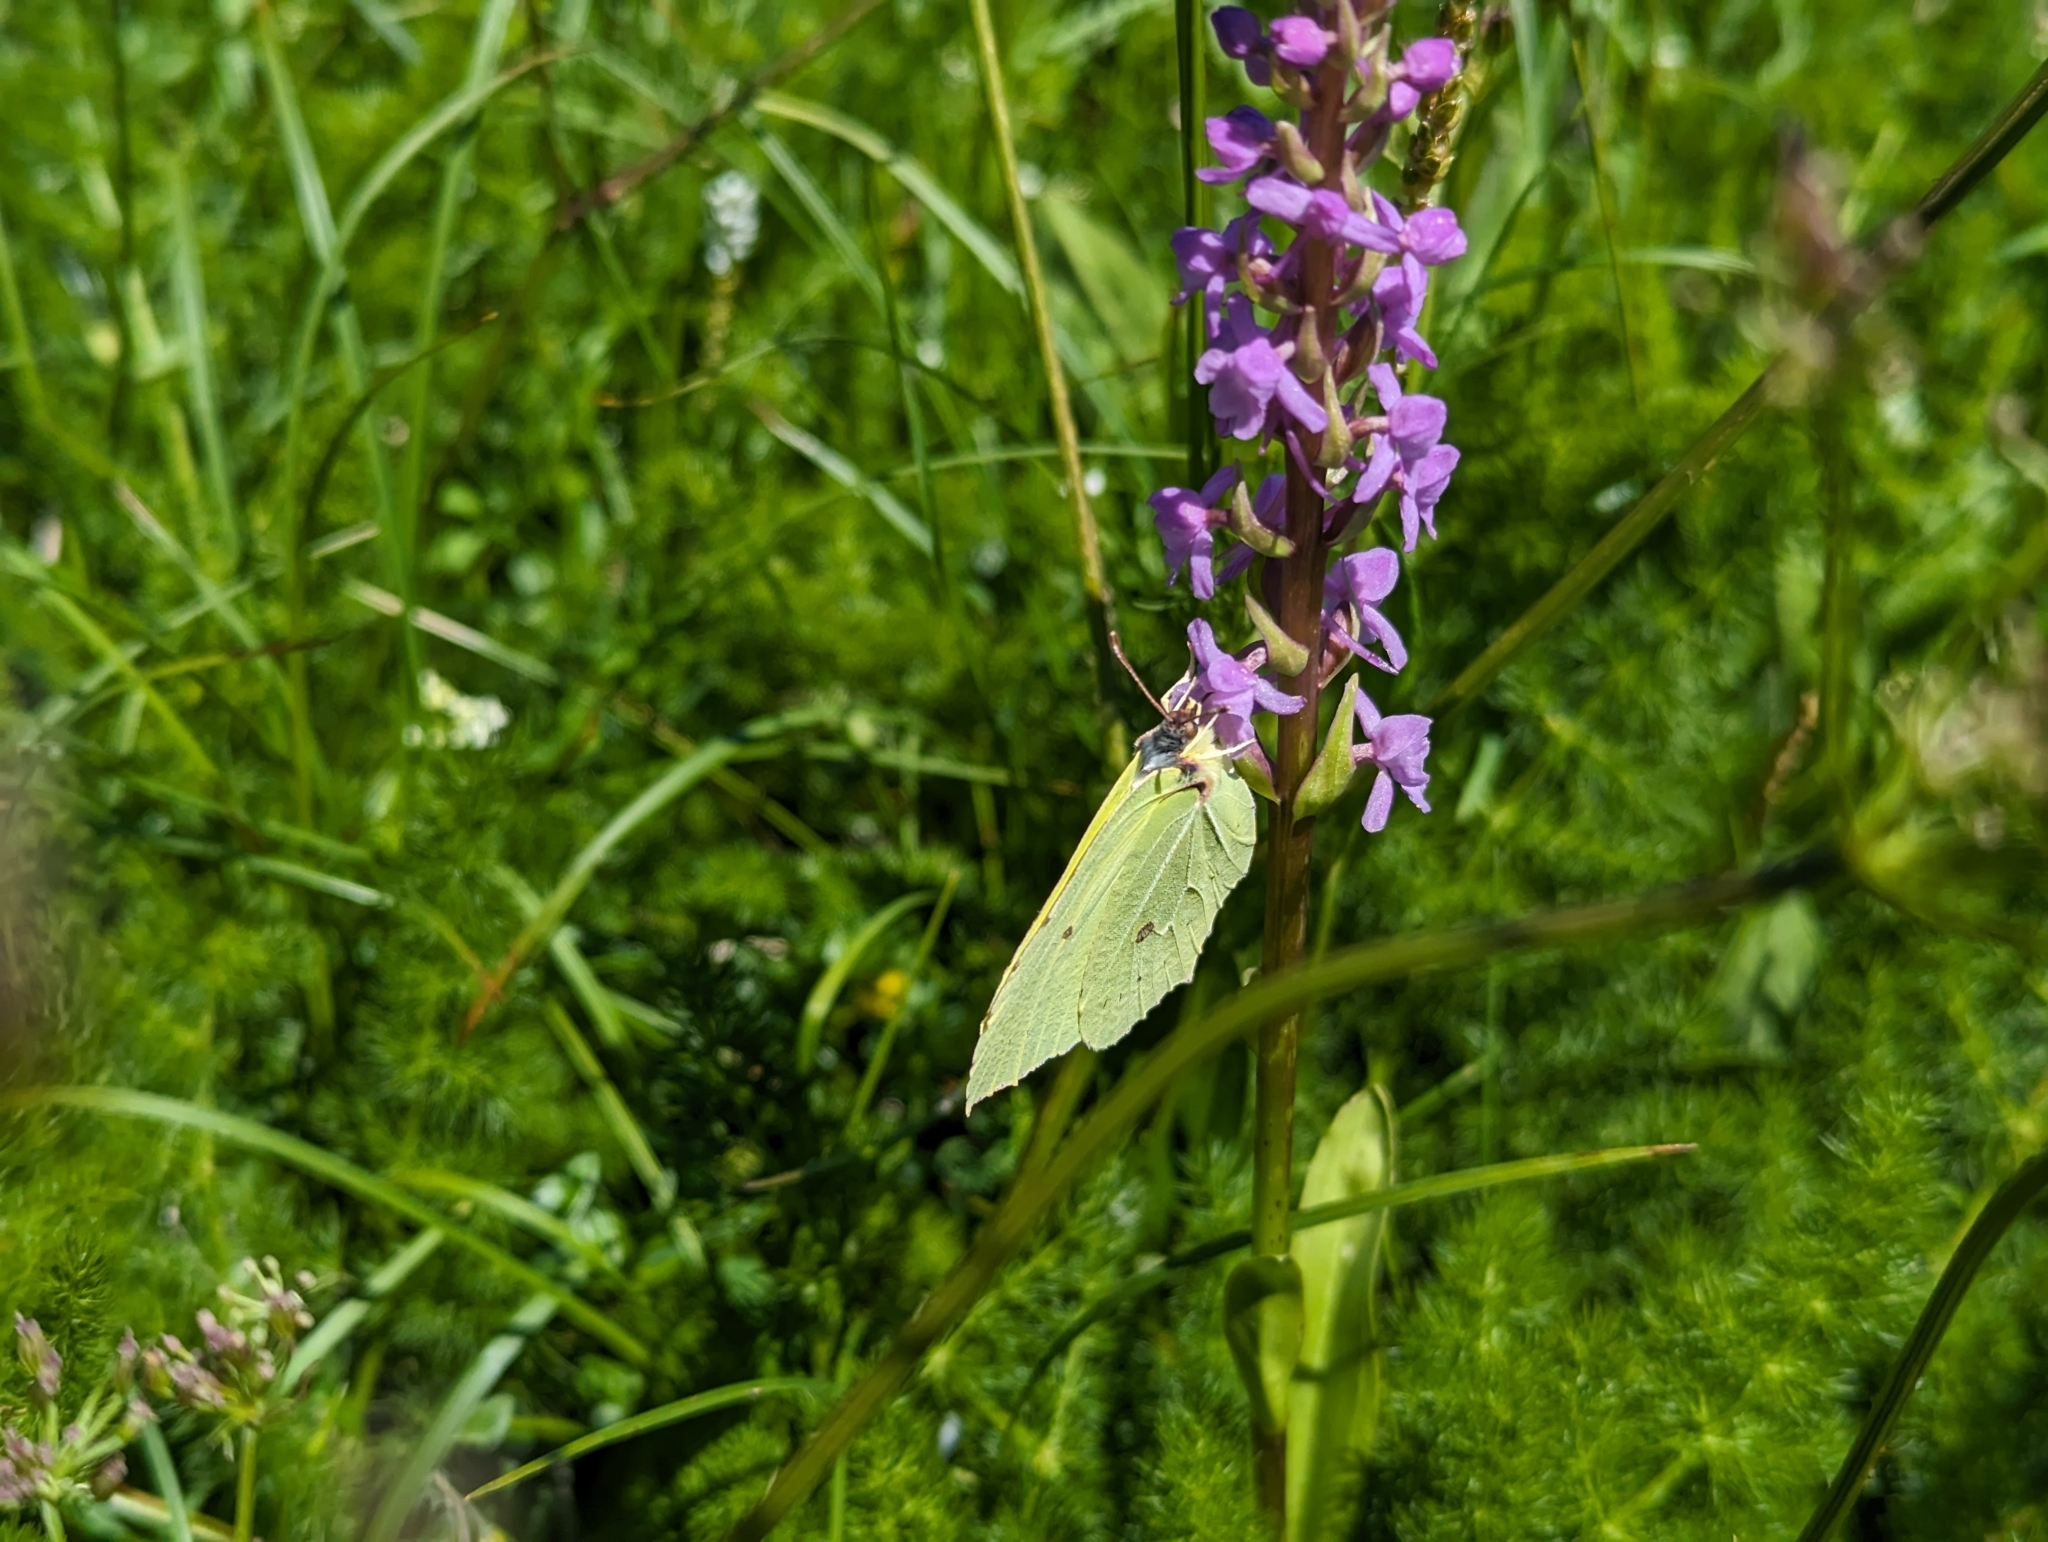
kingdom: Animalia
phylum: Arthropoda
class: Insecta
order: Lepidoptera
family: Pieridae
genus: Gonepteryx
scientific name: Gonepteryx rhamni
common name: Brimstone
